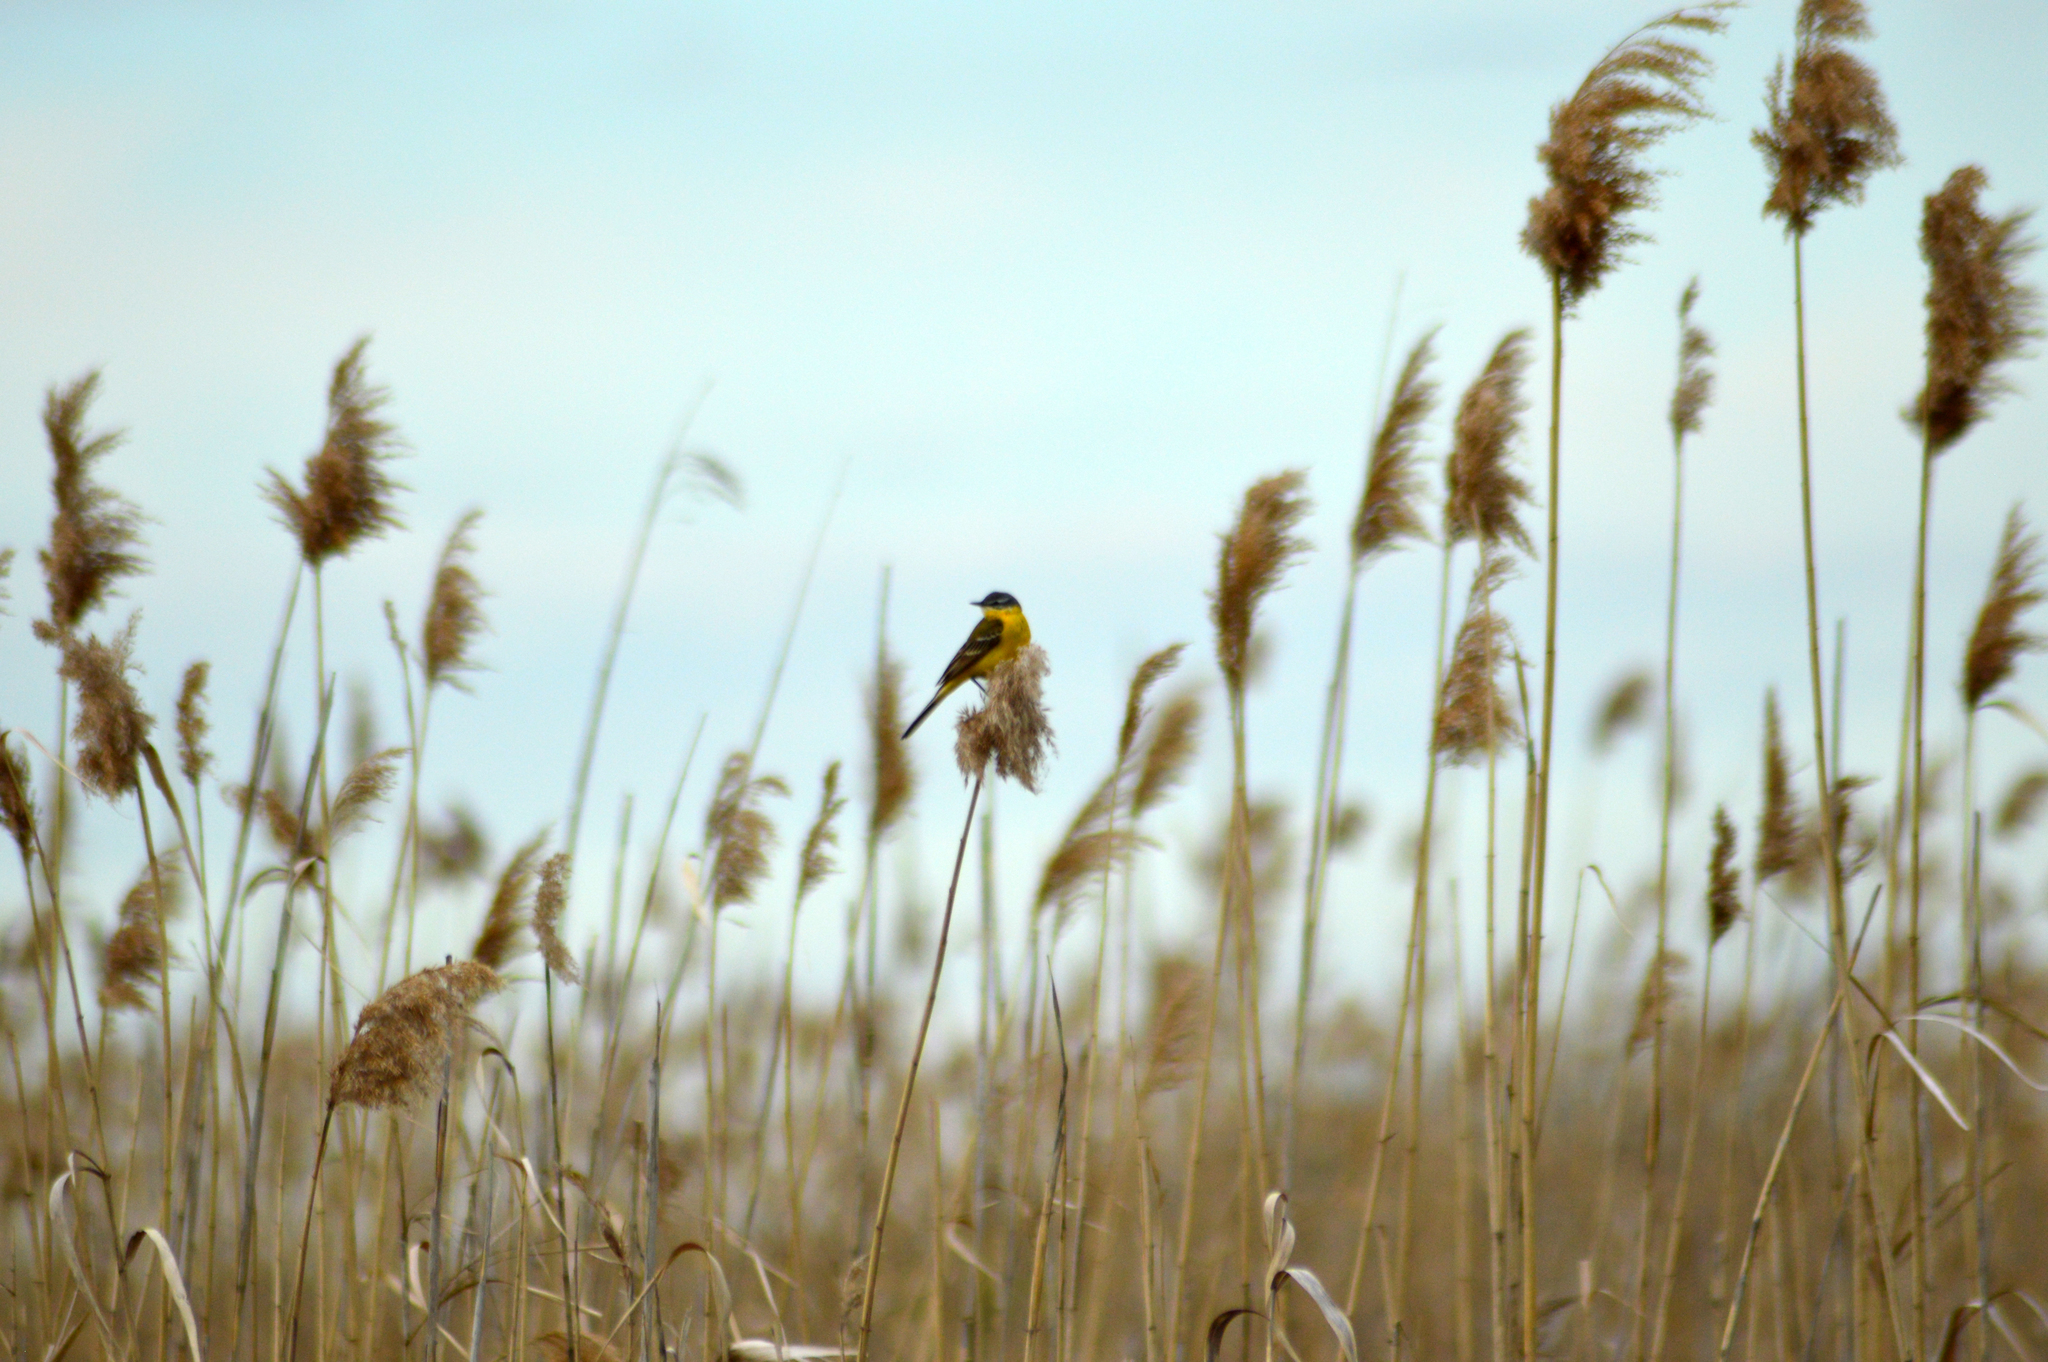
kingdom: Animalia
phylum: Chordata
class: Aves
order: Passeriformes
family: Motacillidae
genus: Motacilla
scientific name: Motacilla flava
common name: Western yellow wagtail
